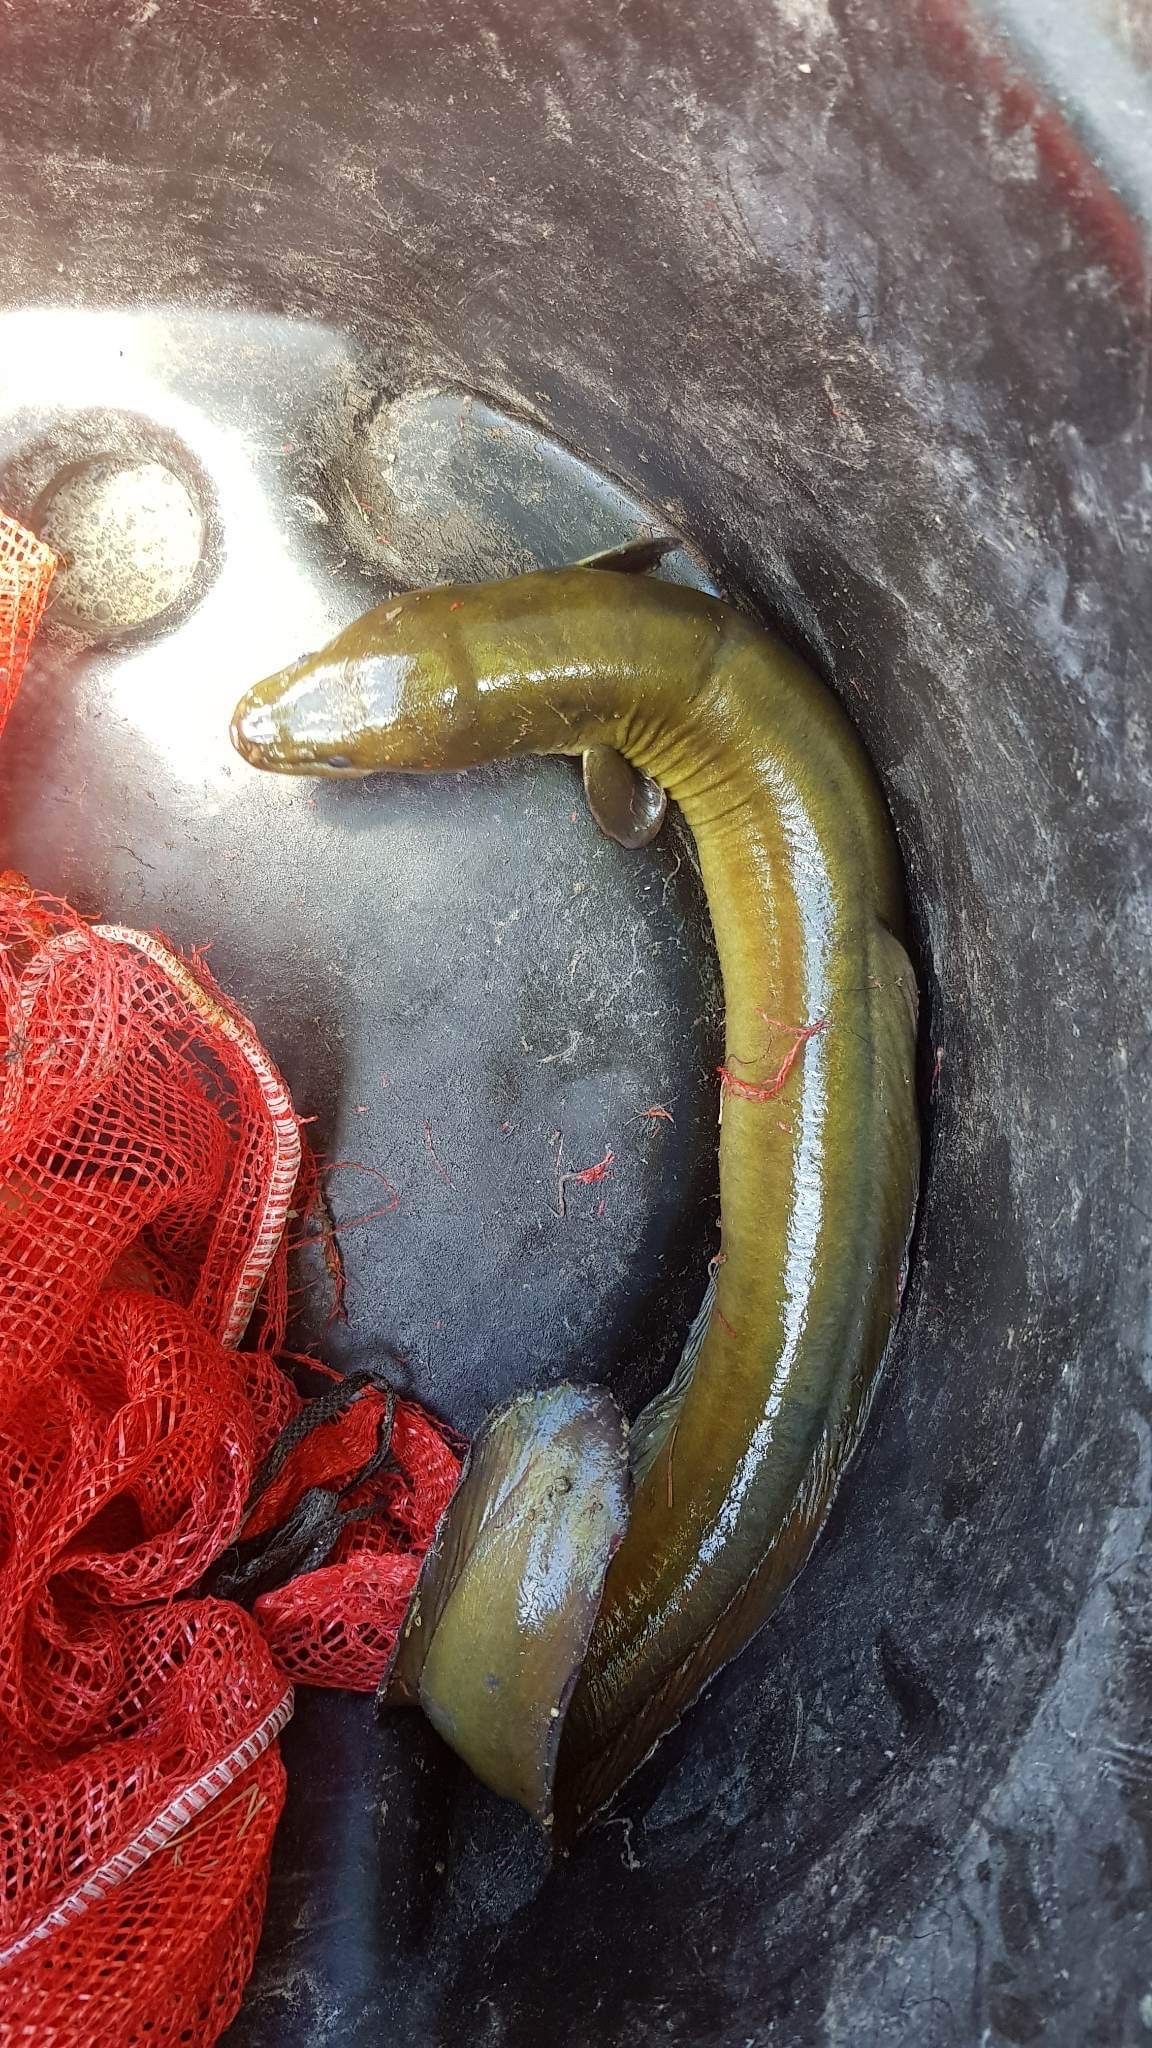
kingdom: Animalia
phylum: Chordata
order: Anguilliformes
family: Anguillidae
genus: Anguilla
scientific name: Anguilla dieffenbachii
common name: New zealand longfin eel
